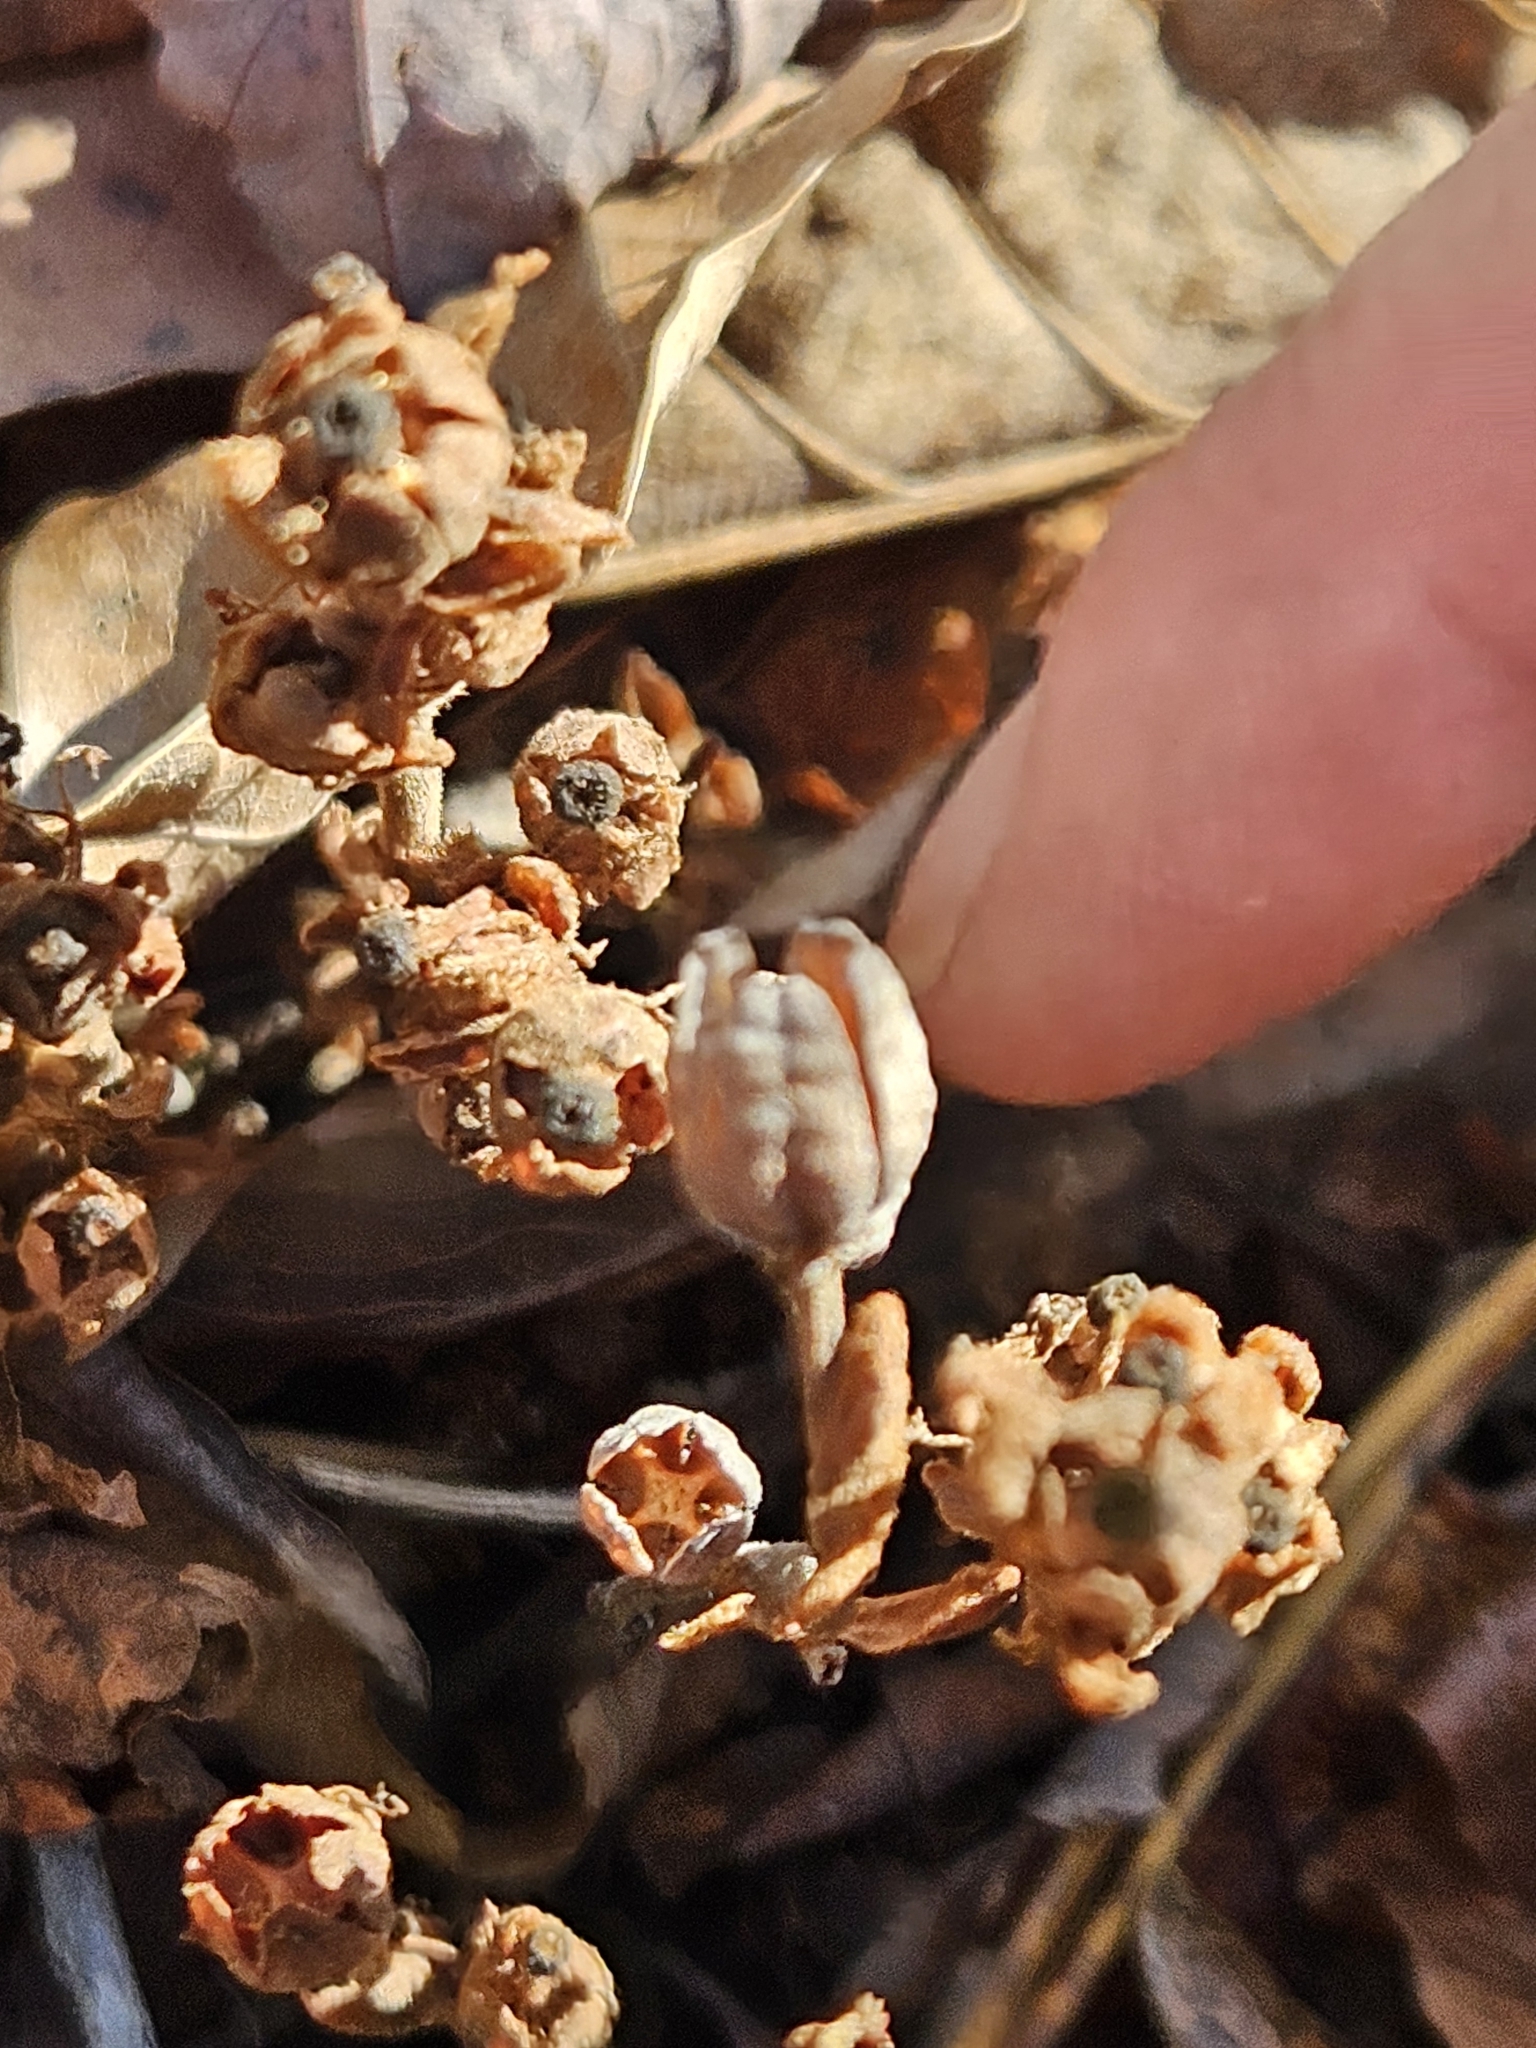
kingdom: Plantae
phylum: Tracheophyta
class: Magnoliopsida
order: Ericales
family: Ericaceae
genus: Hypopitys
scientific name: Hypopitys monotropa
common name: Yellow bird's-nest
